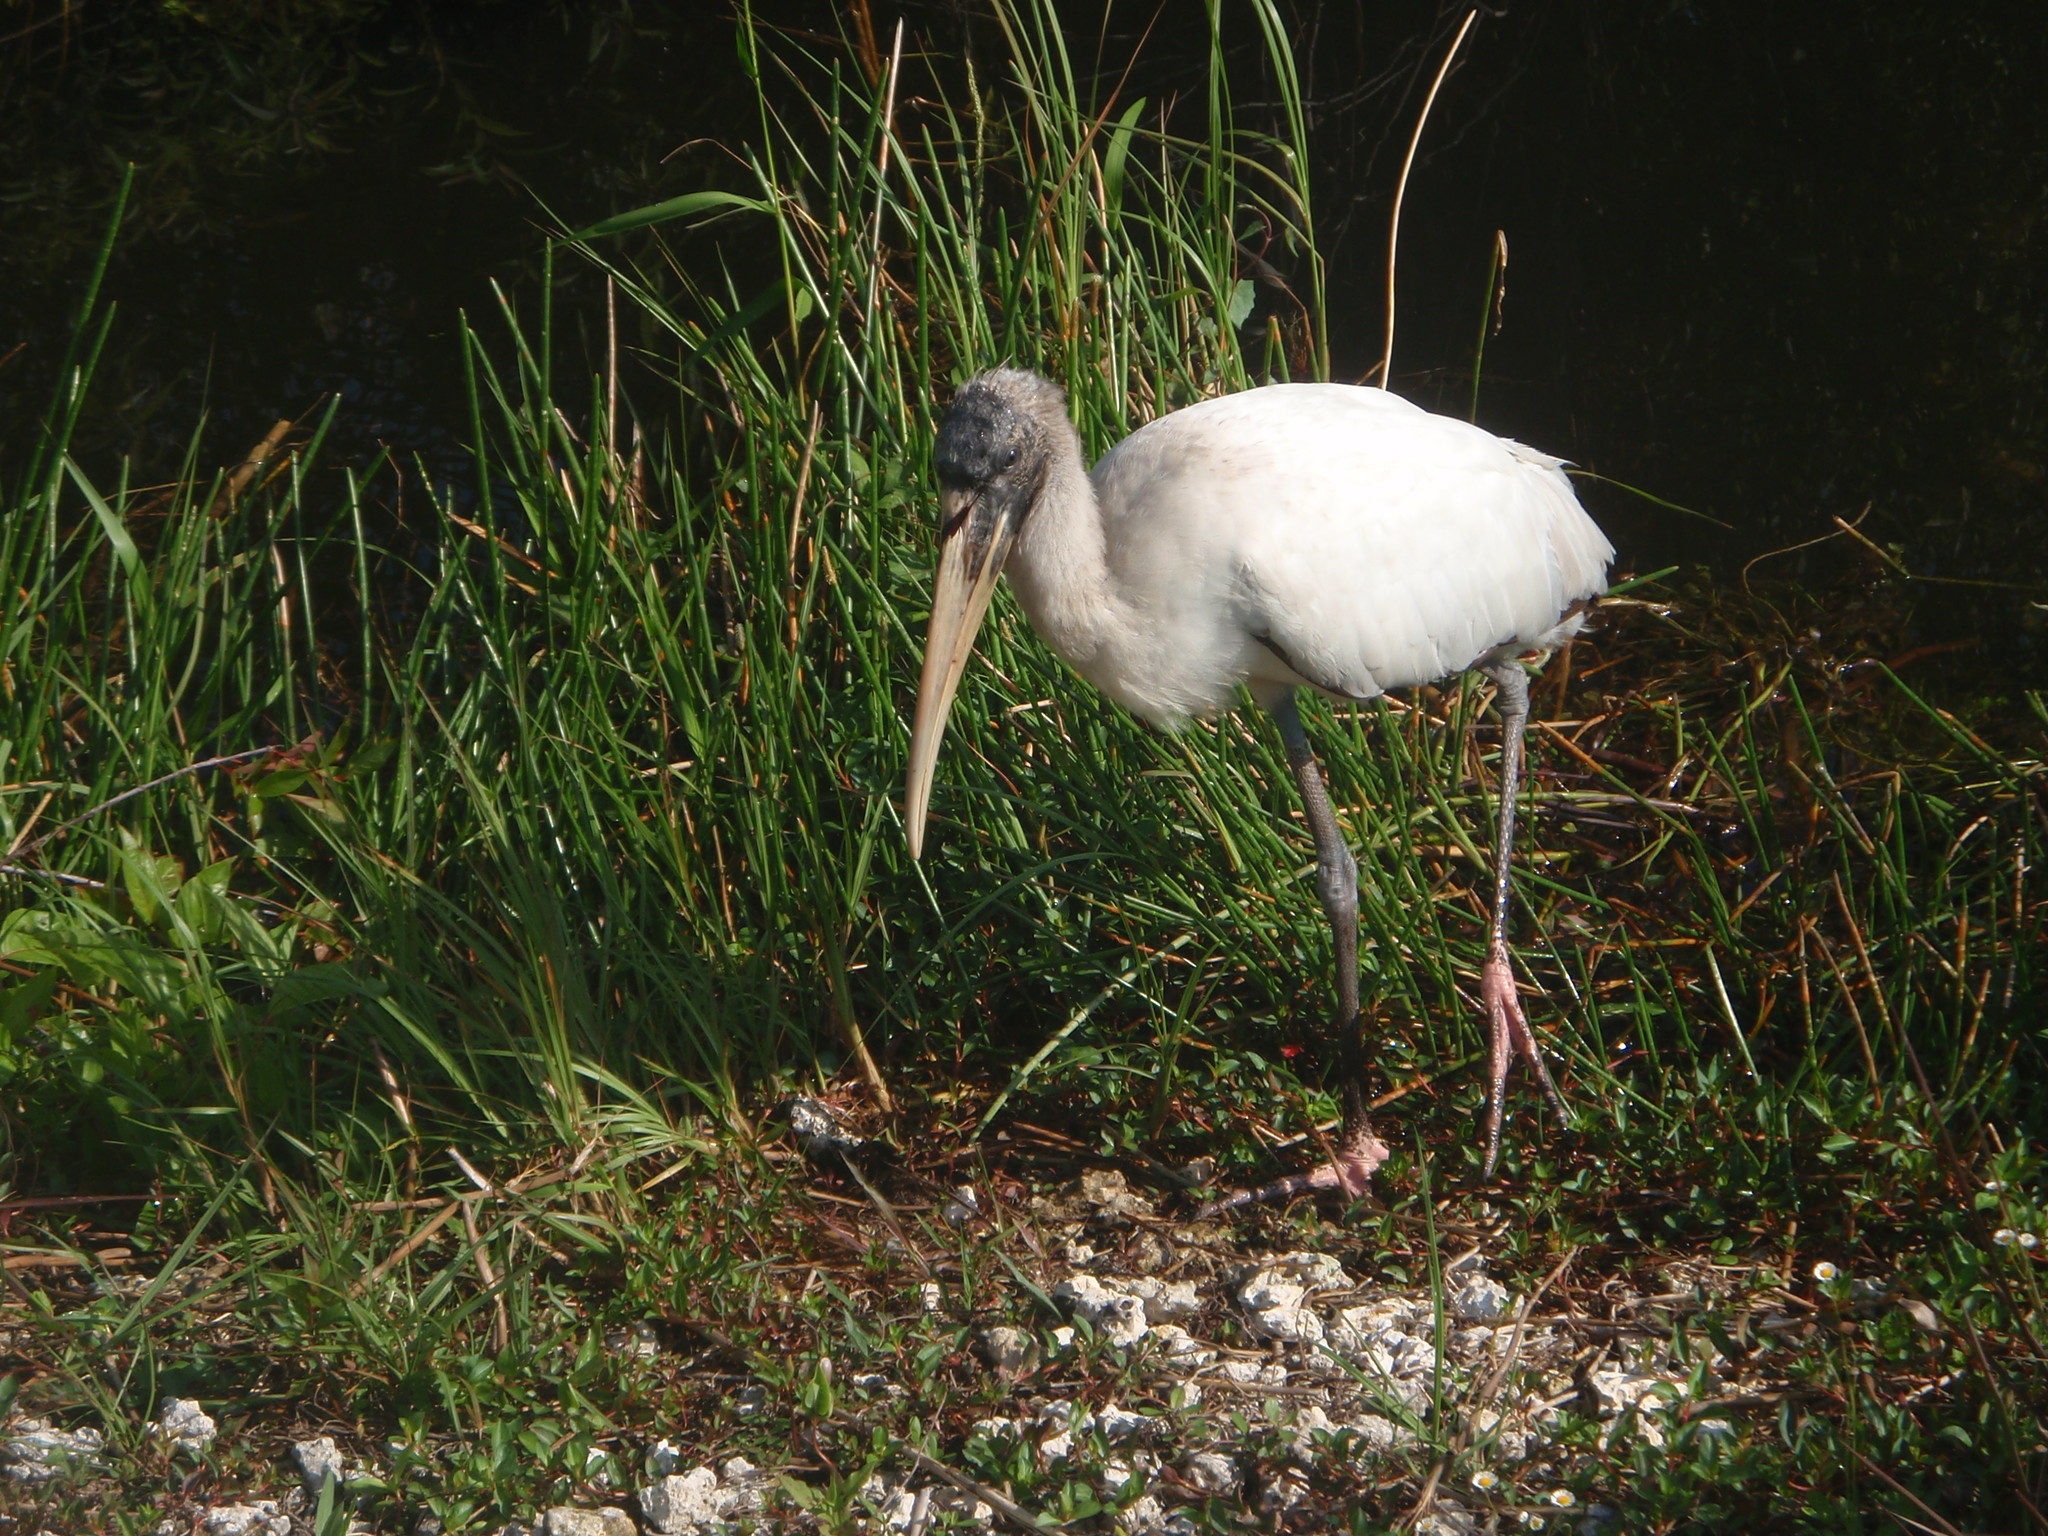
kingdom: Animalia
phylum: Chordata
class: Aves
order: Ciconiiformes
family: Ciconiidae
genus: Mycteria
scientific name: Mycteria americana
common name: Wood stork
